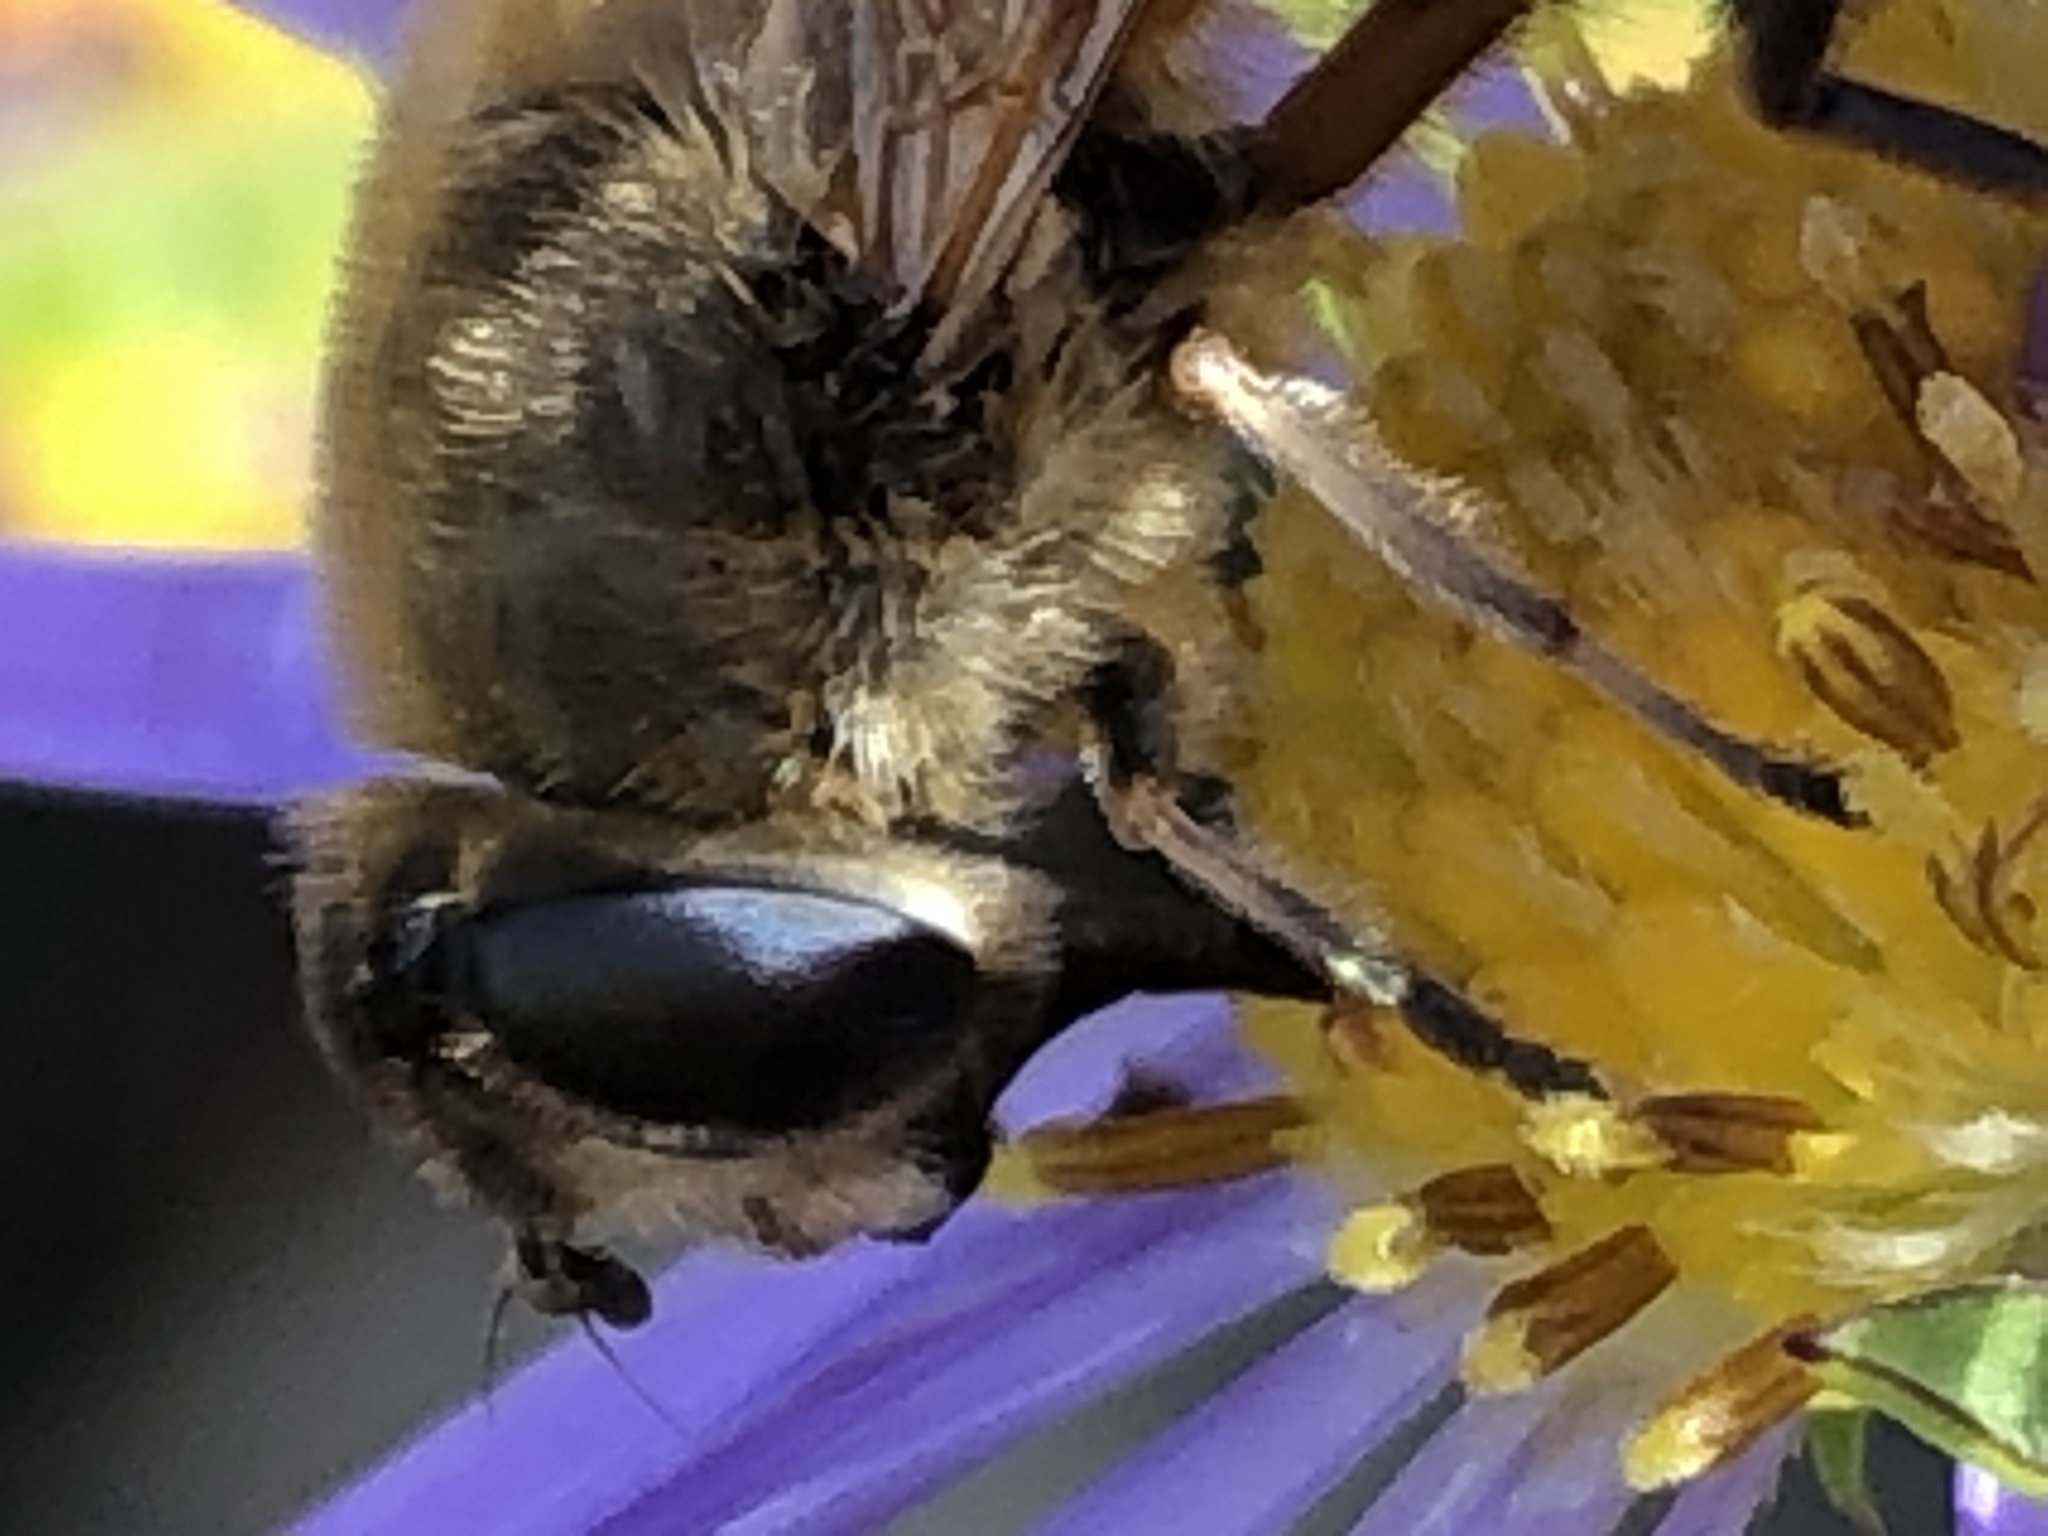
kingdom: Animalia
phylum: Arthropoda
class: Insecta
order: Diptera
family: Syrphidae
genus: Eristalis
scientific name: Eristalis tenax
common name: Drone fly
